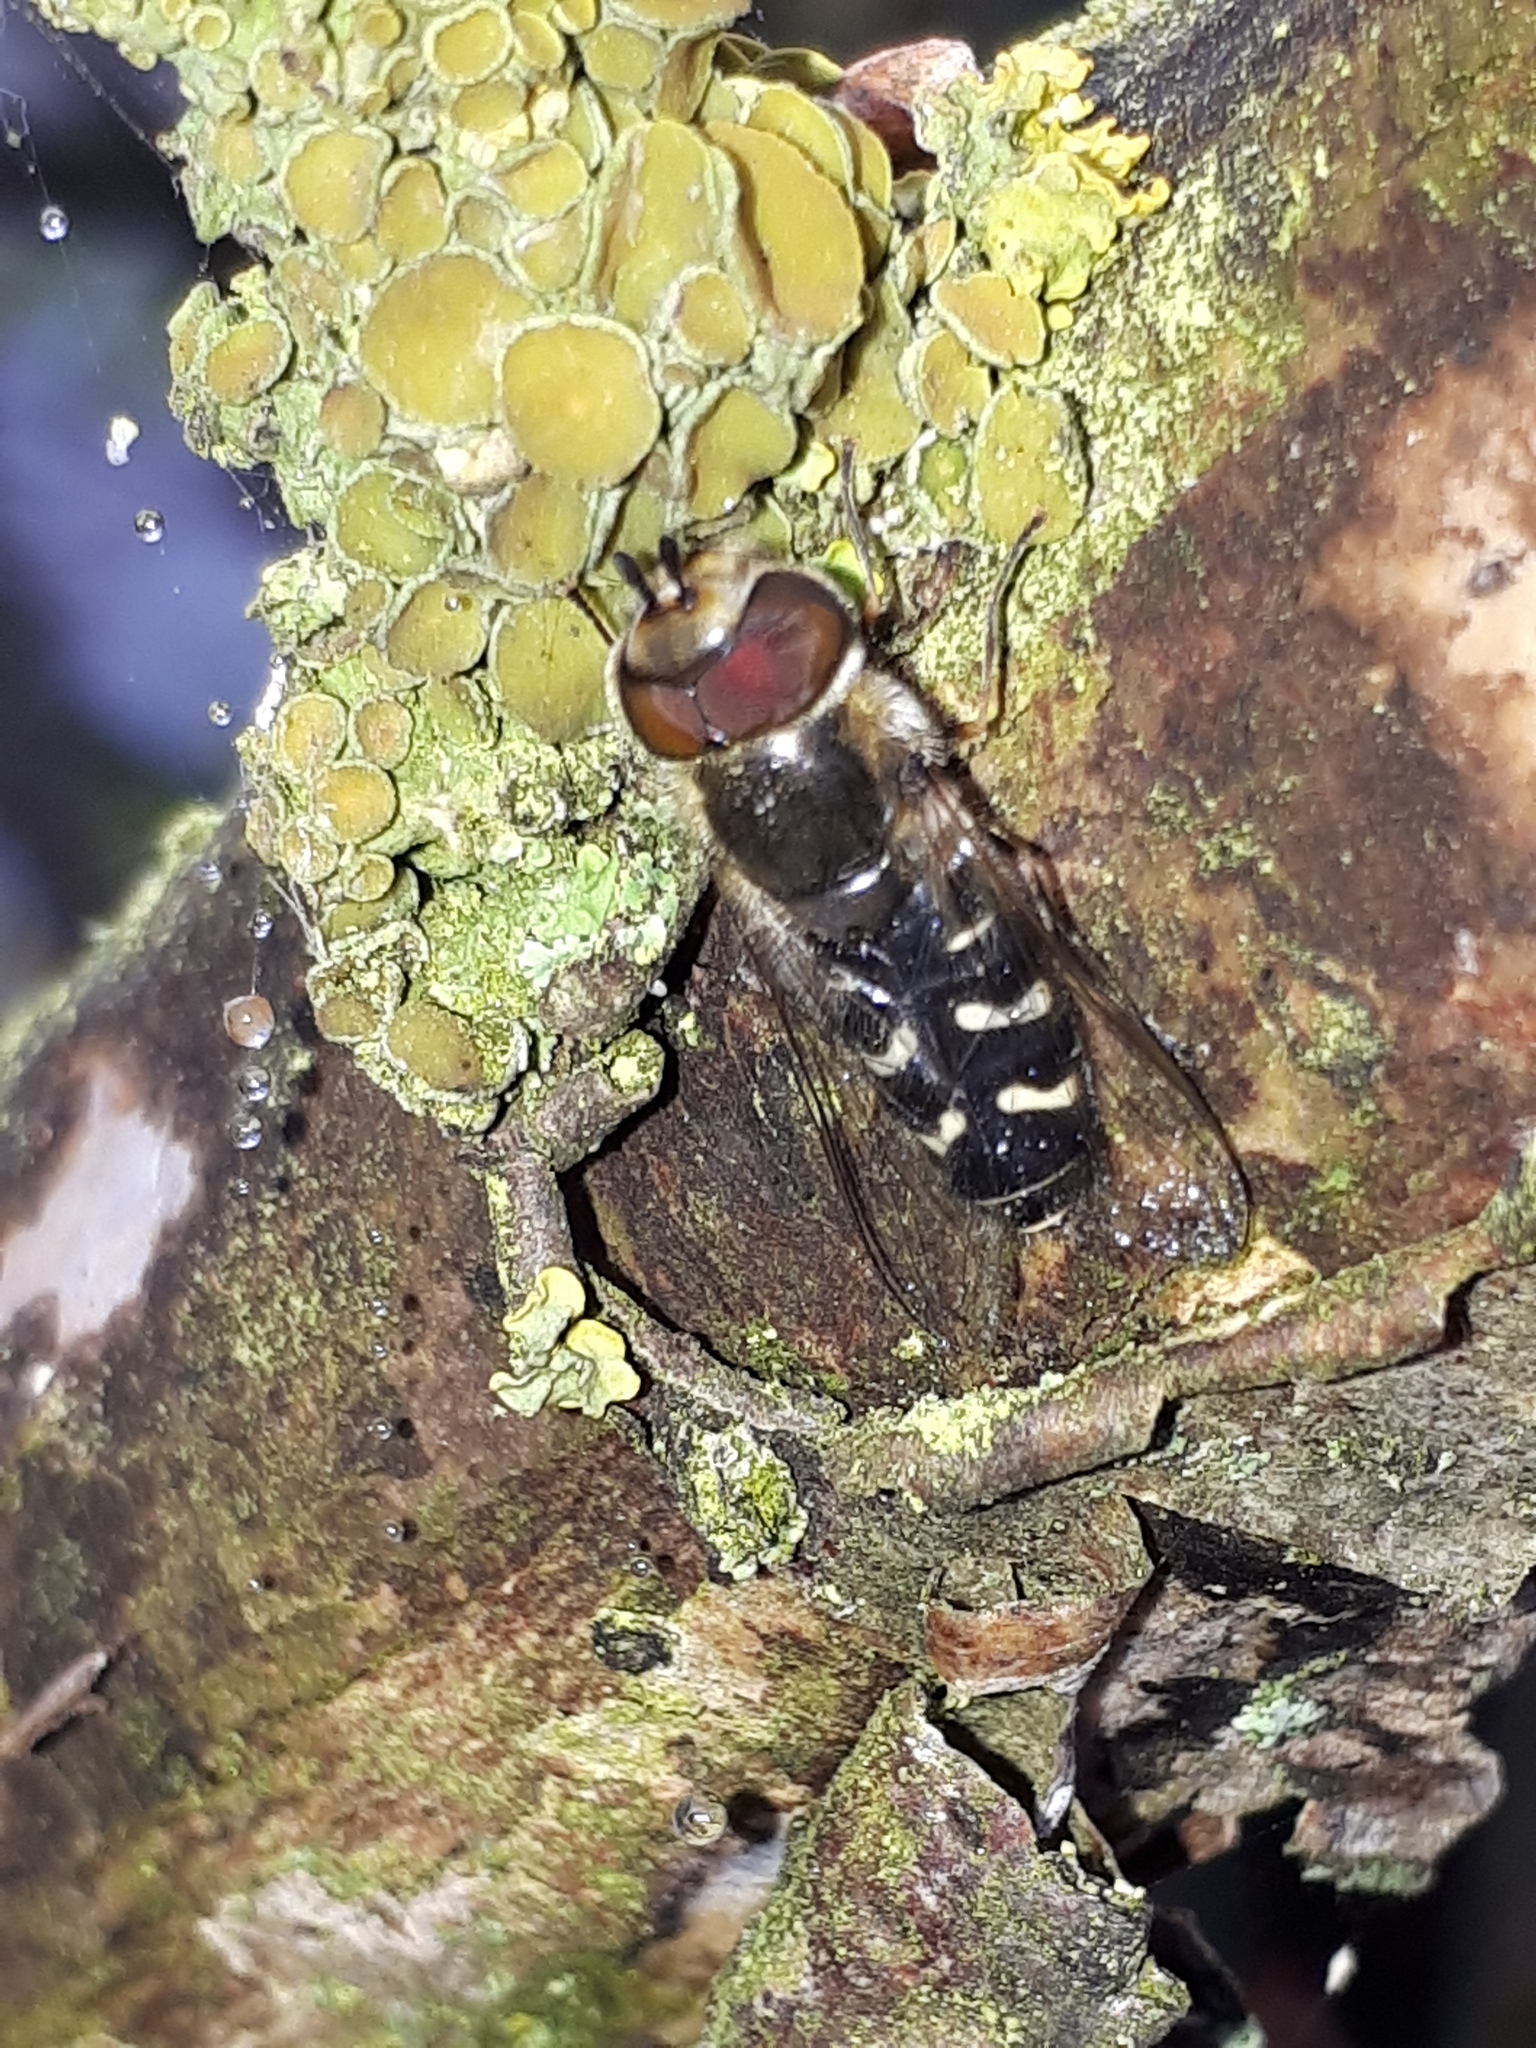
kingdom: Animalia
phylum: Arthropoda
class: Insecta
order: Diptera
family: Syrphidae
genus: Scaeva
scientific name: Scaeva pyrastri
